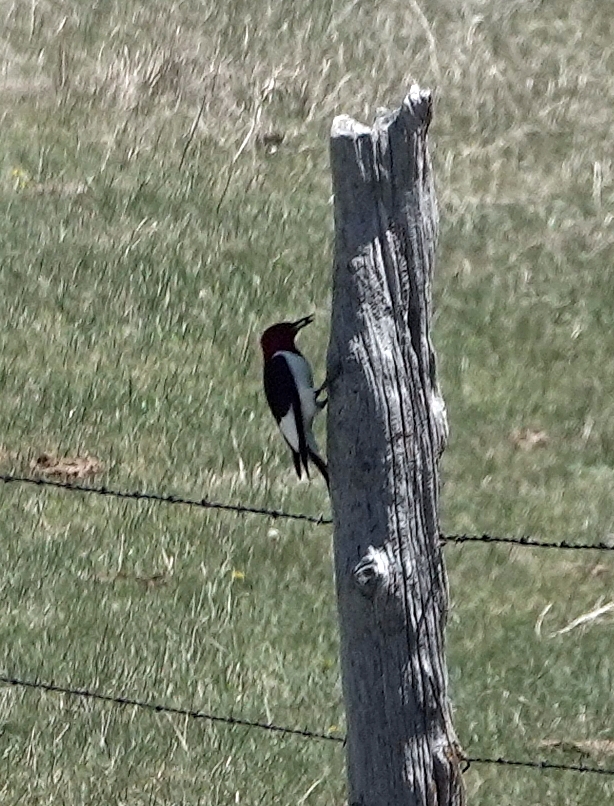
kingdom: Animalia
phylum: Chordata
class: Aves
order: Piciformes
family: Picidae
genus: Melanerpes
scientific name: Melanerpes erythrocephalus
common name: Red-headed woodpecker
